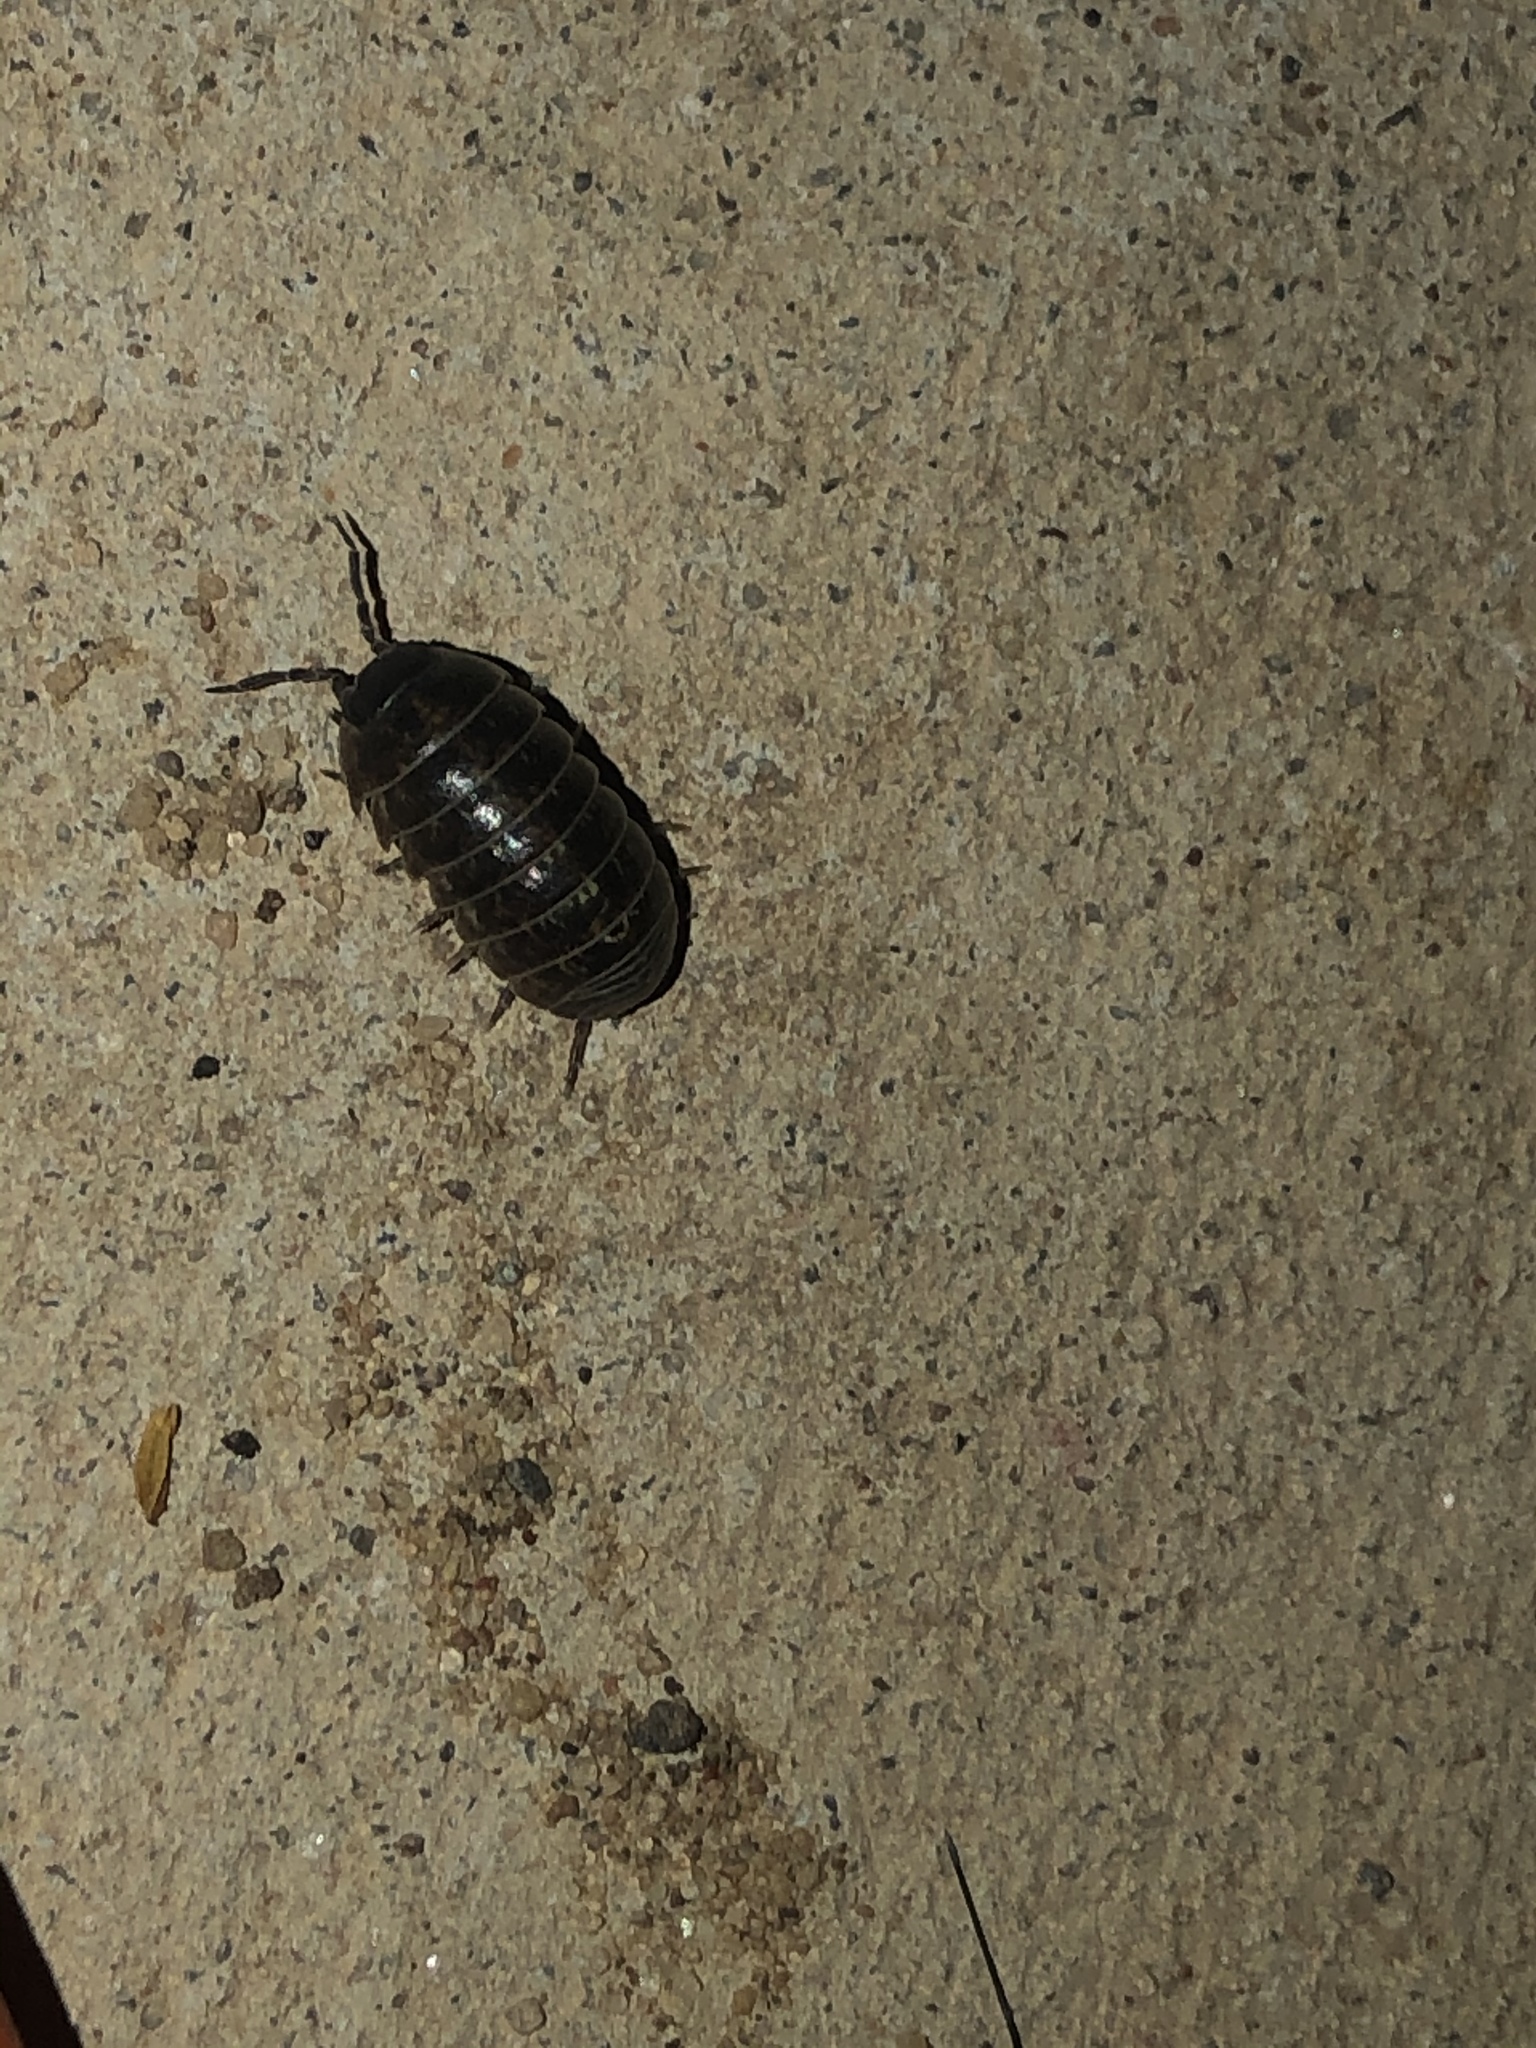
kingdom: Animalia
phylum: Arthropoda
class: Malacostraca
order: Isopoda
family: Armadillidiidae
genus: Armadillidium
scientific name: Armadillidium vulgare
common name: Common pill woodlouse
